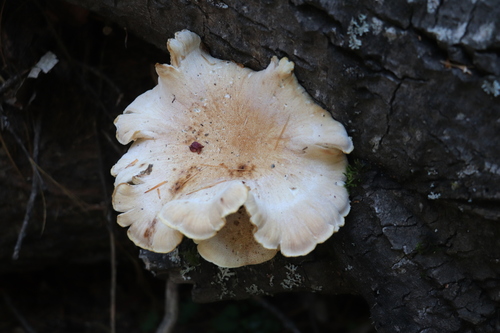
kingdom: Fungi
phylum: Basidiomycota
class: Agaricomycetes
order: Gloeophyllales
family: Gloeophyllaceae
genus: Neolentinus
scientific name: Neolentinus cyathiformis
